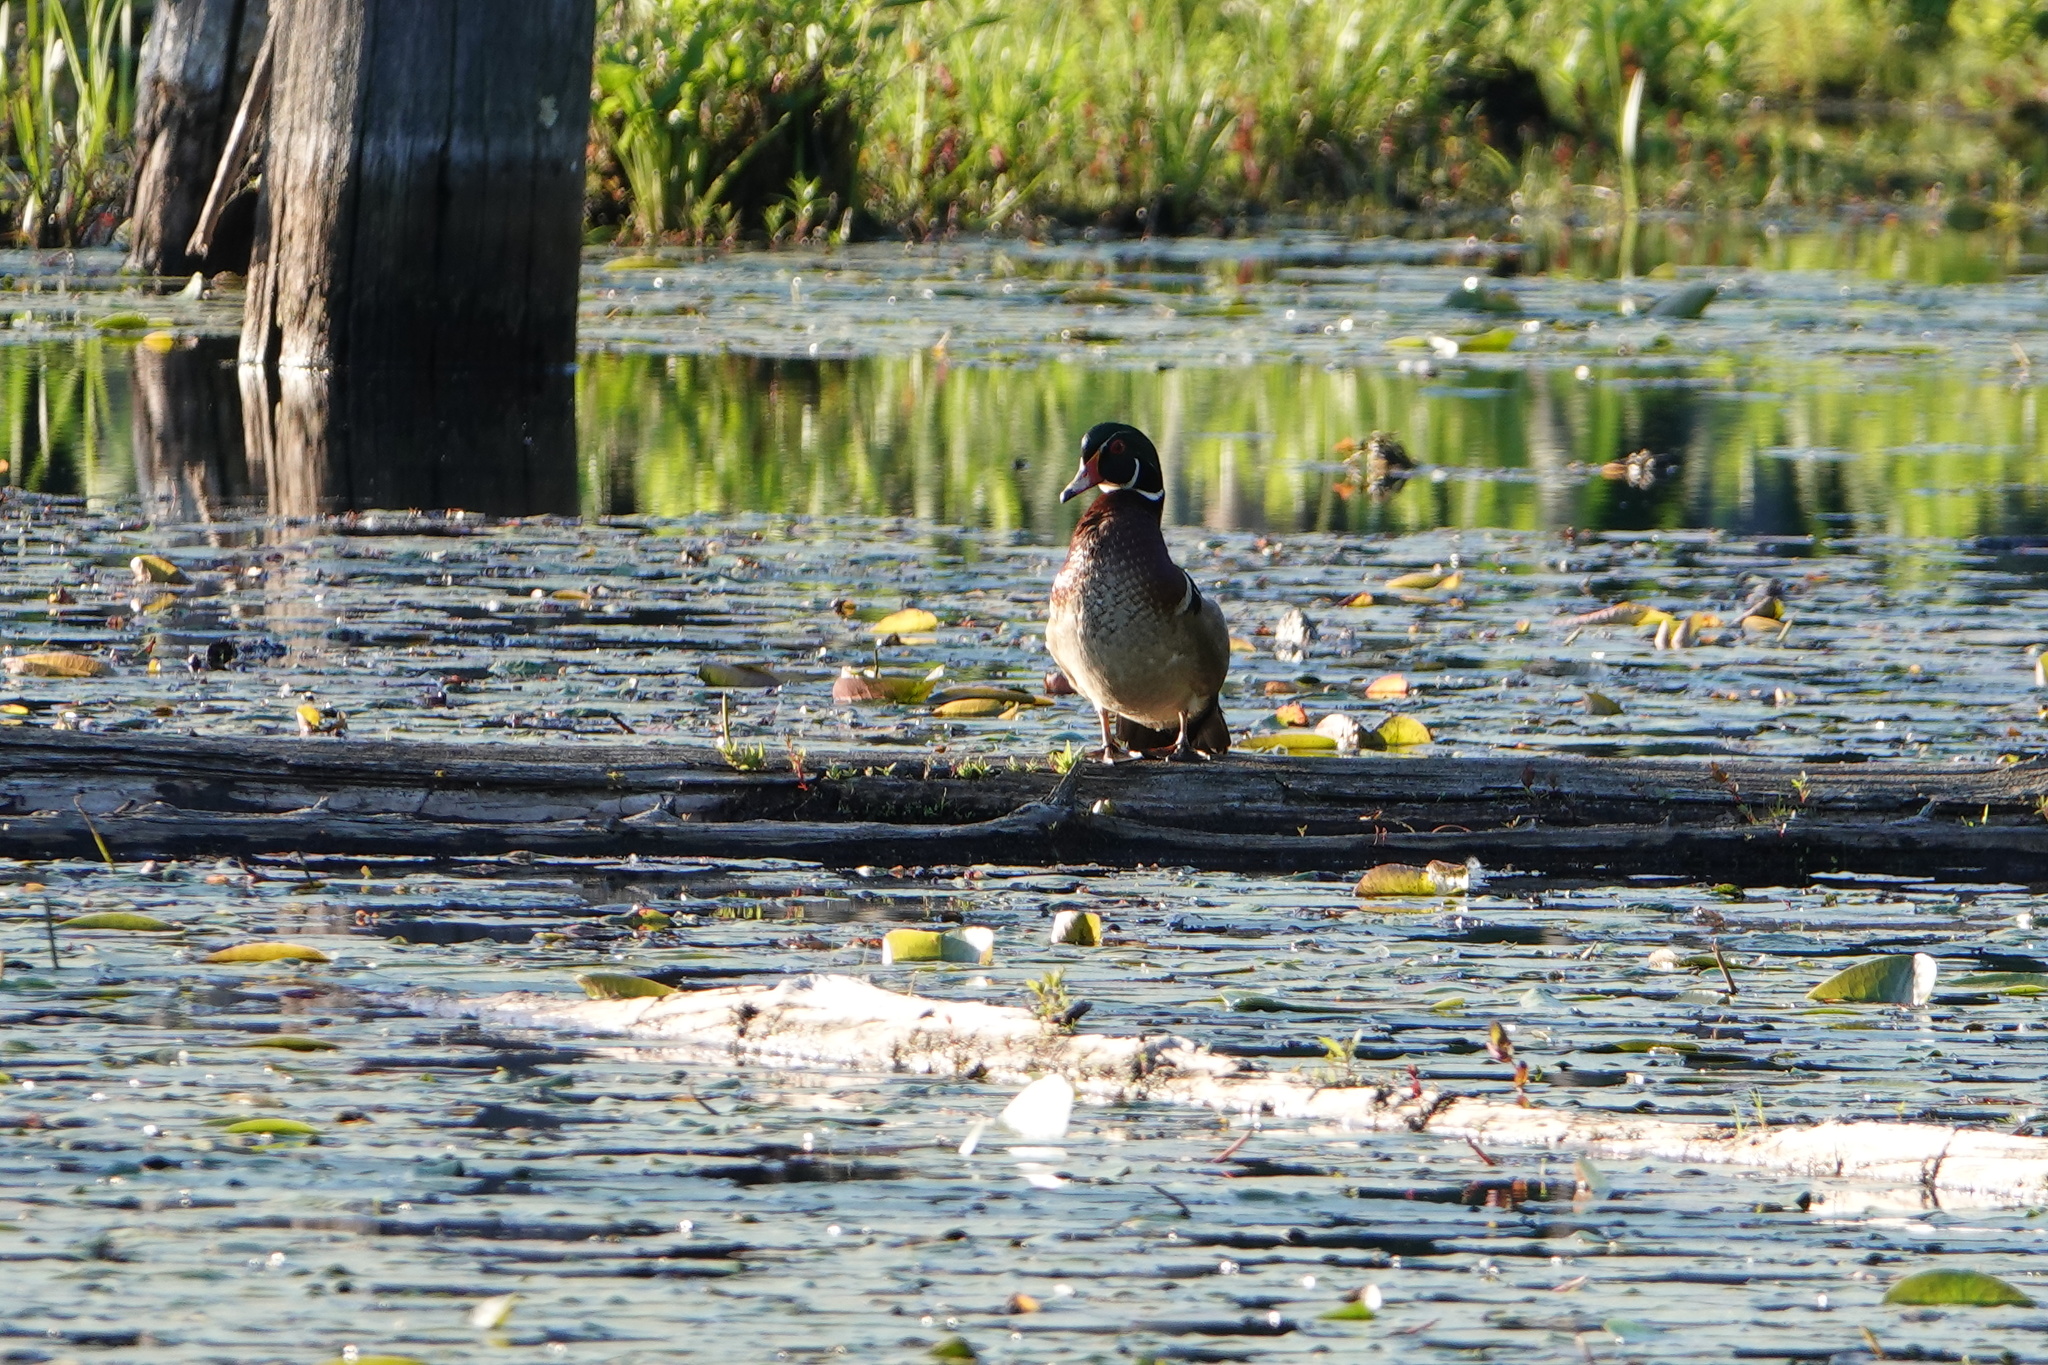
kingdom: Animalia
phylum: Chordata
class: Aves
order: Anseriformes
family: Anatidae
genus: Aix
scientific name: Aix sponsa
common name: Wood duck
